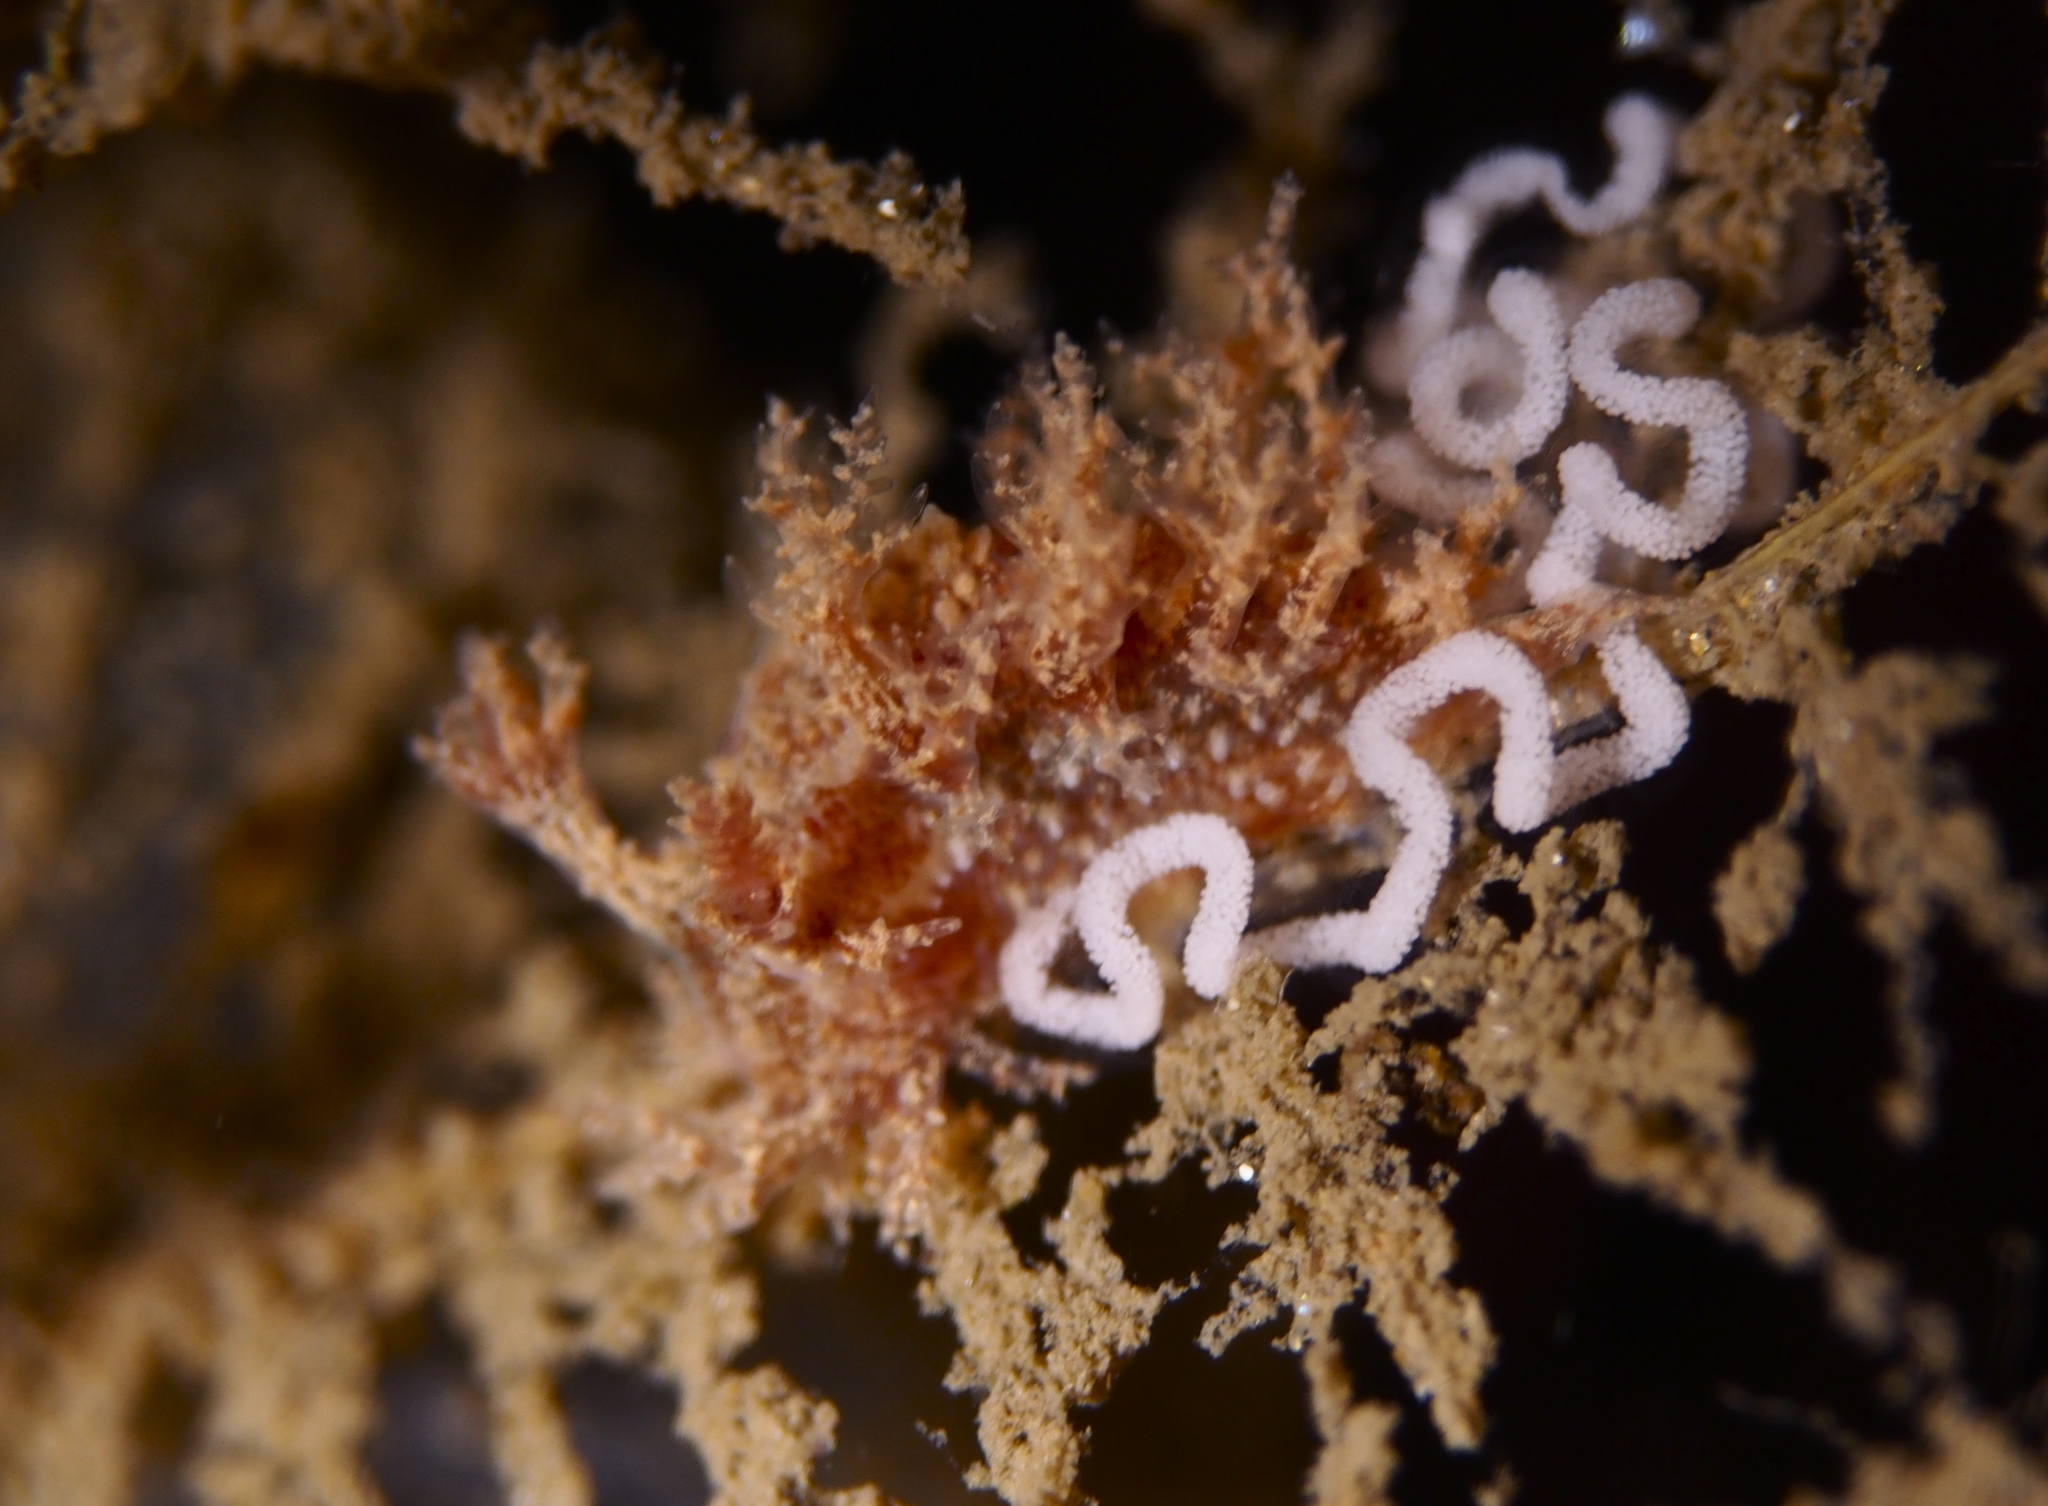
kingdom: Animalia
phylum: Mollusca
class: Gastropoda
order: Nudibranchia
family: Dendronotidae
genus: Dendronotus
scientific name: Dendronotus frondosus
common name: Bushy-backed nudibranch
